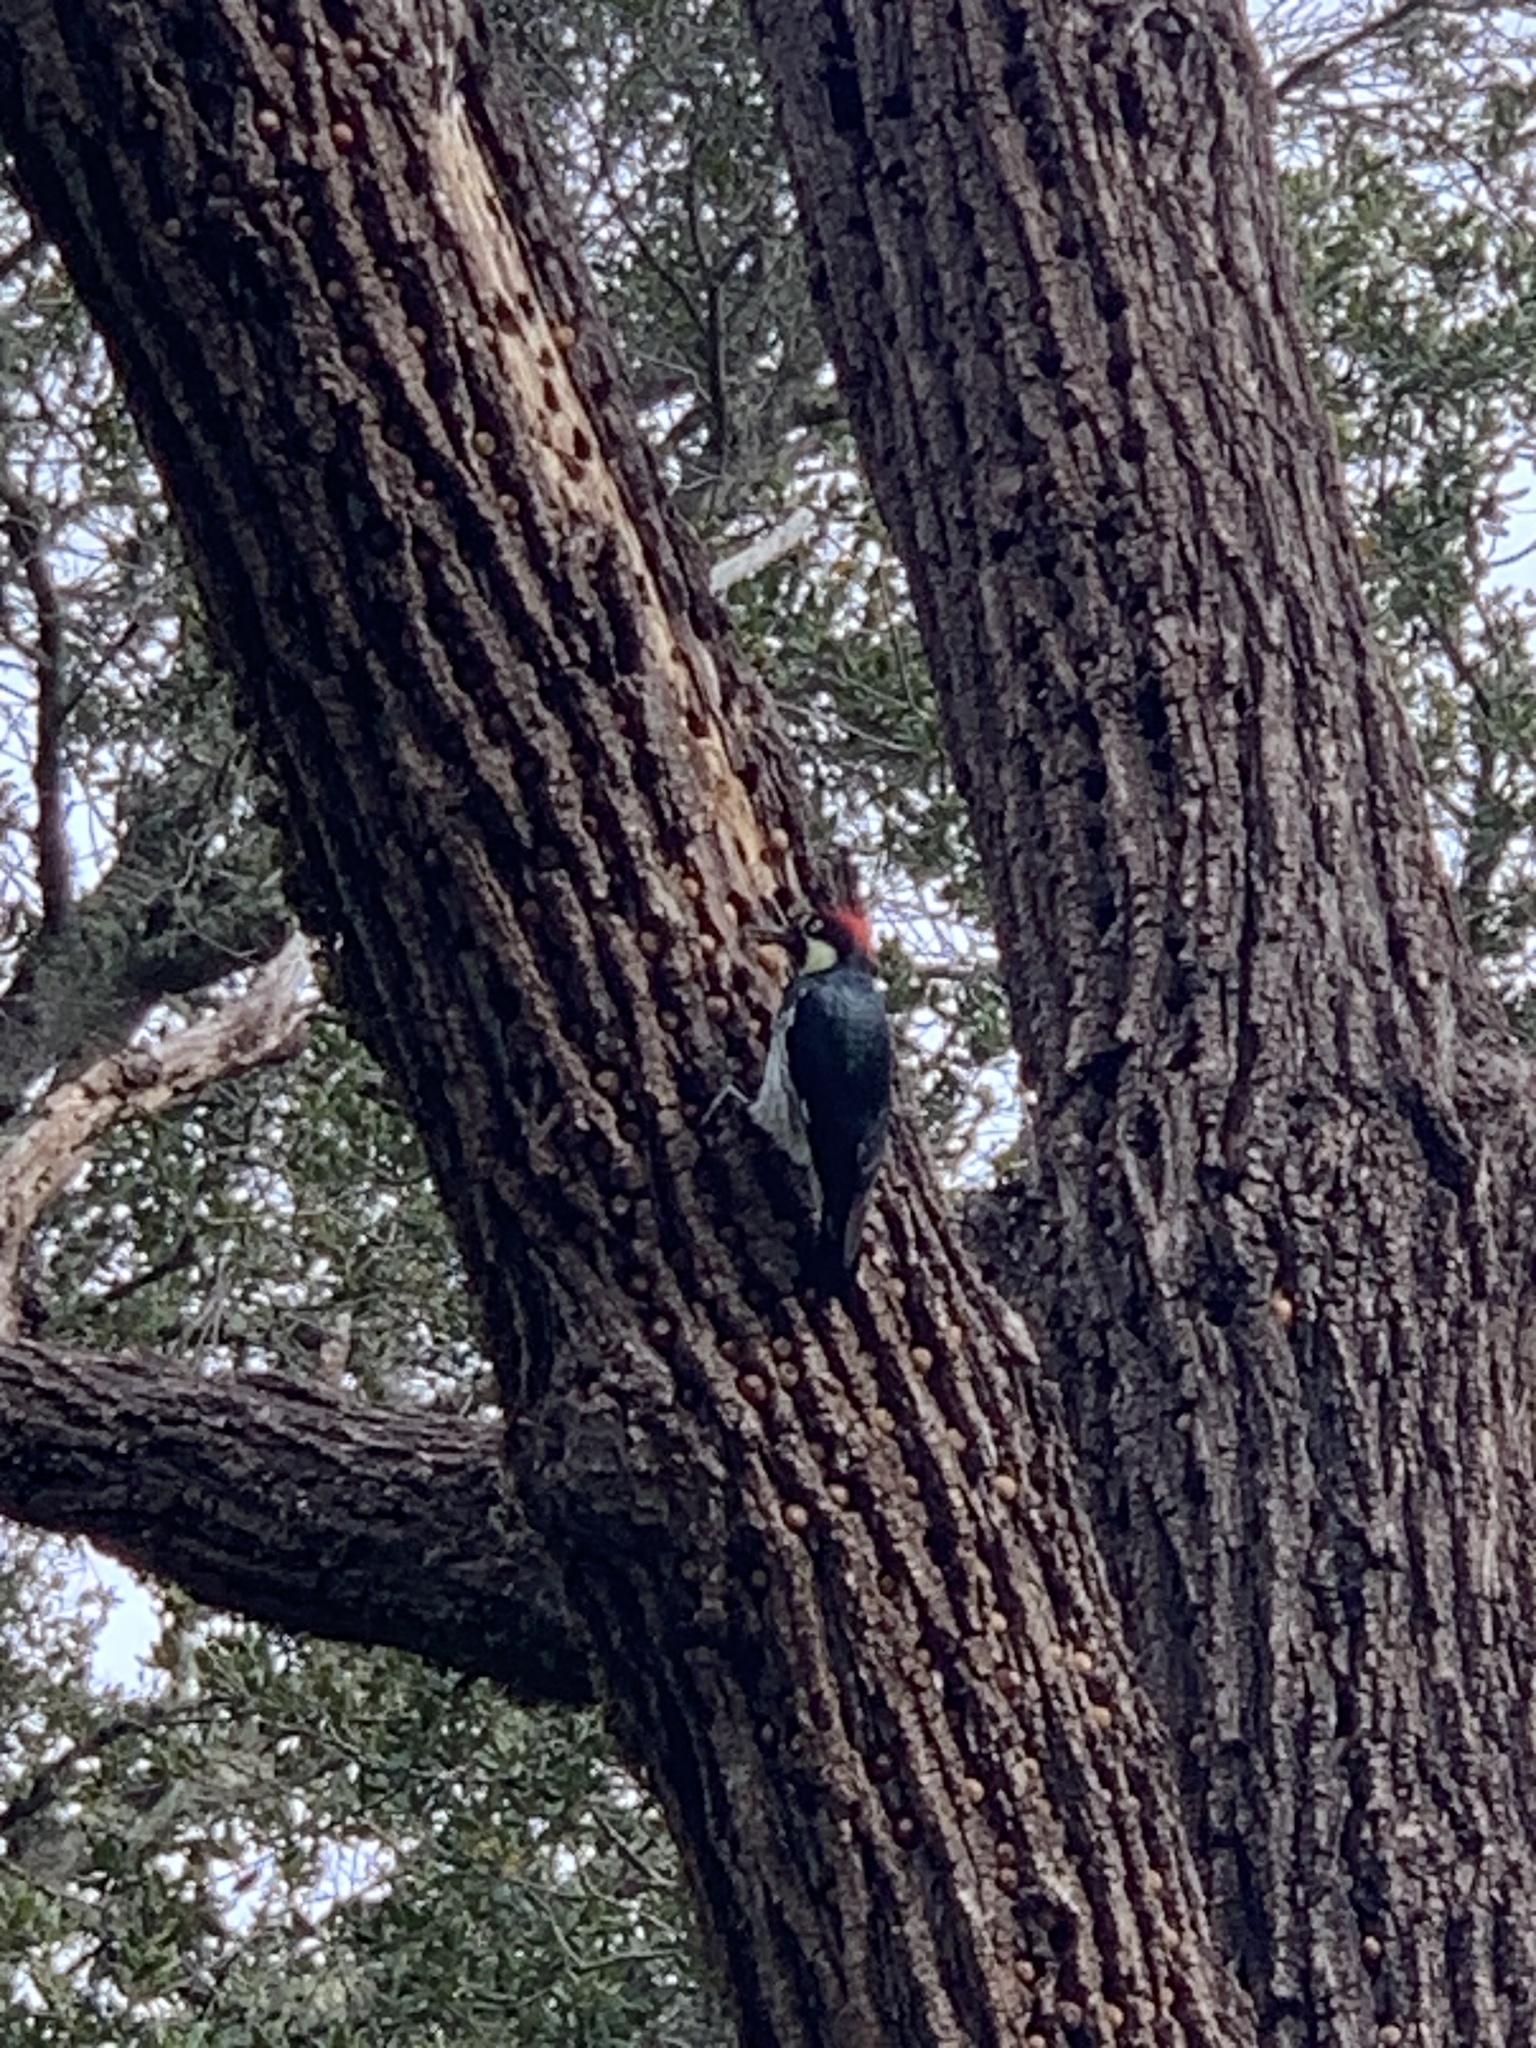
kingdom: Animalia
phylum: Chordata
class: Aves
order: Piciformes
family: Picidae
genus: Melanerpes
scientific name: Melanerpes formicivorus
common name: Acorn woodpecker
